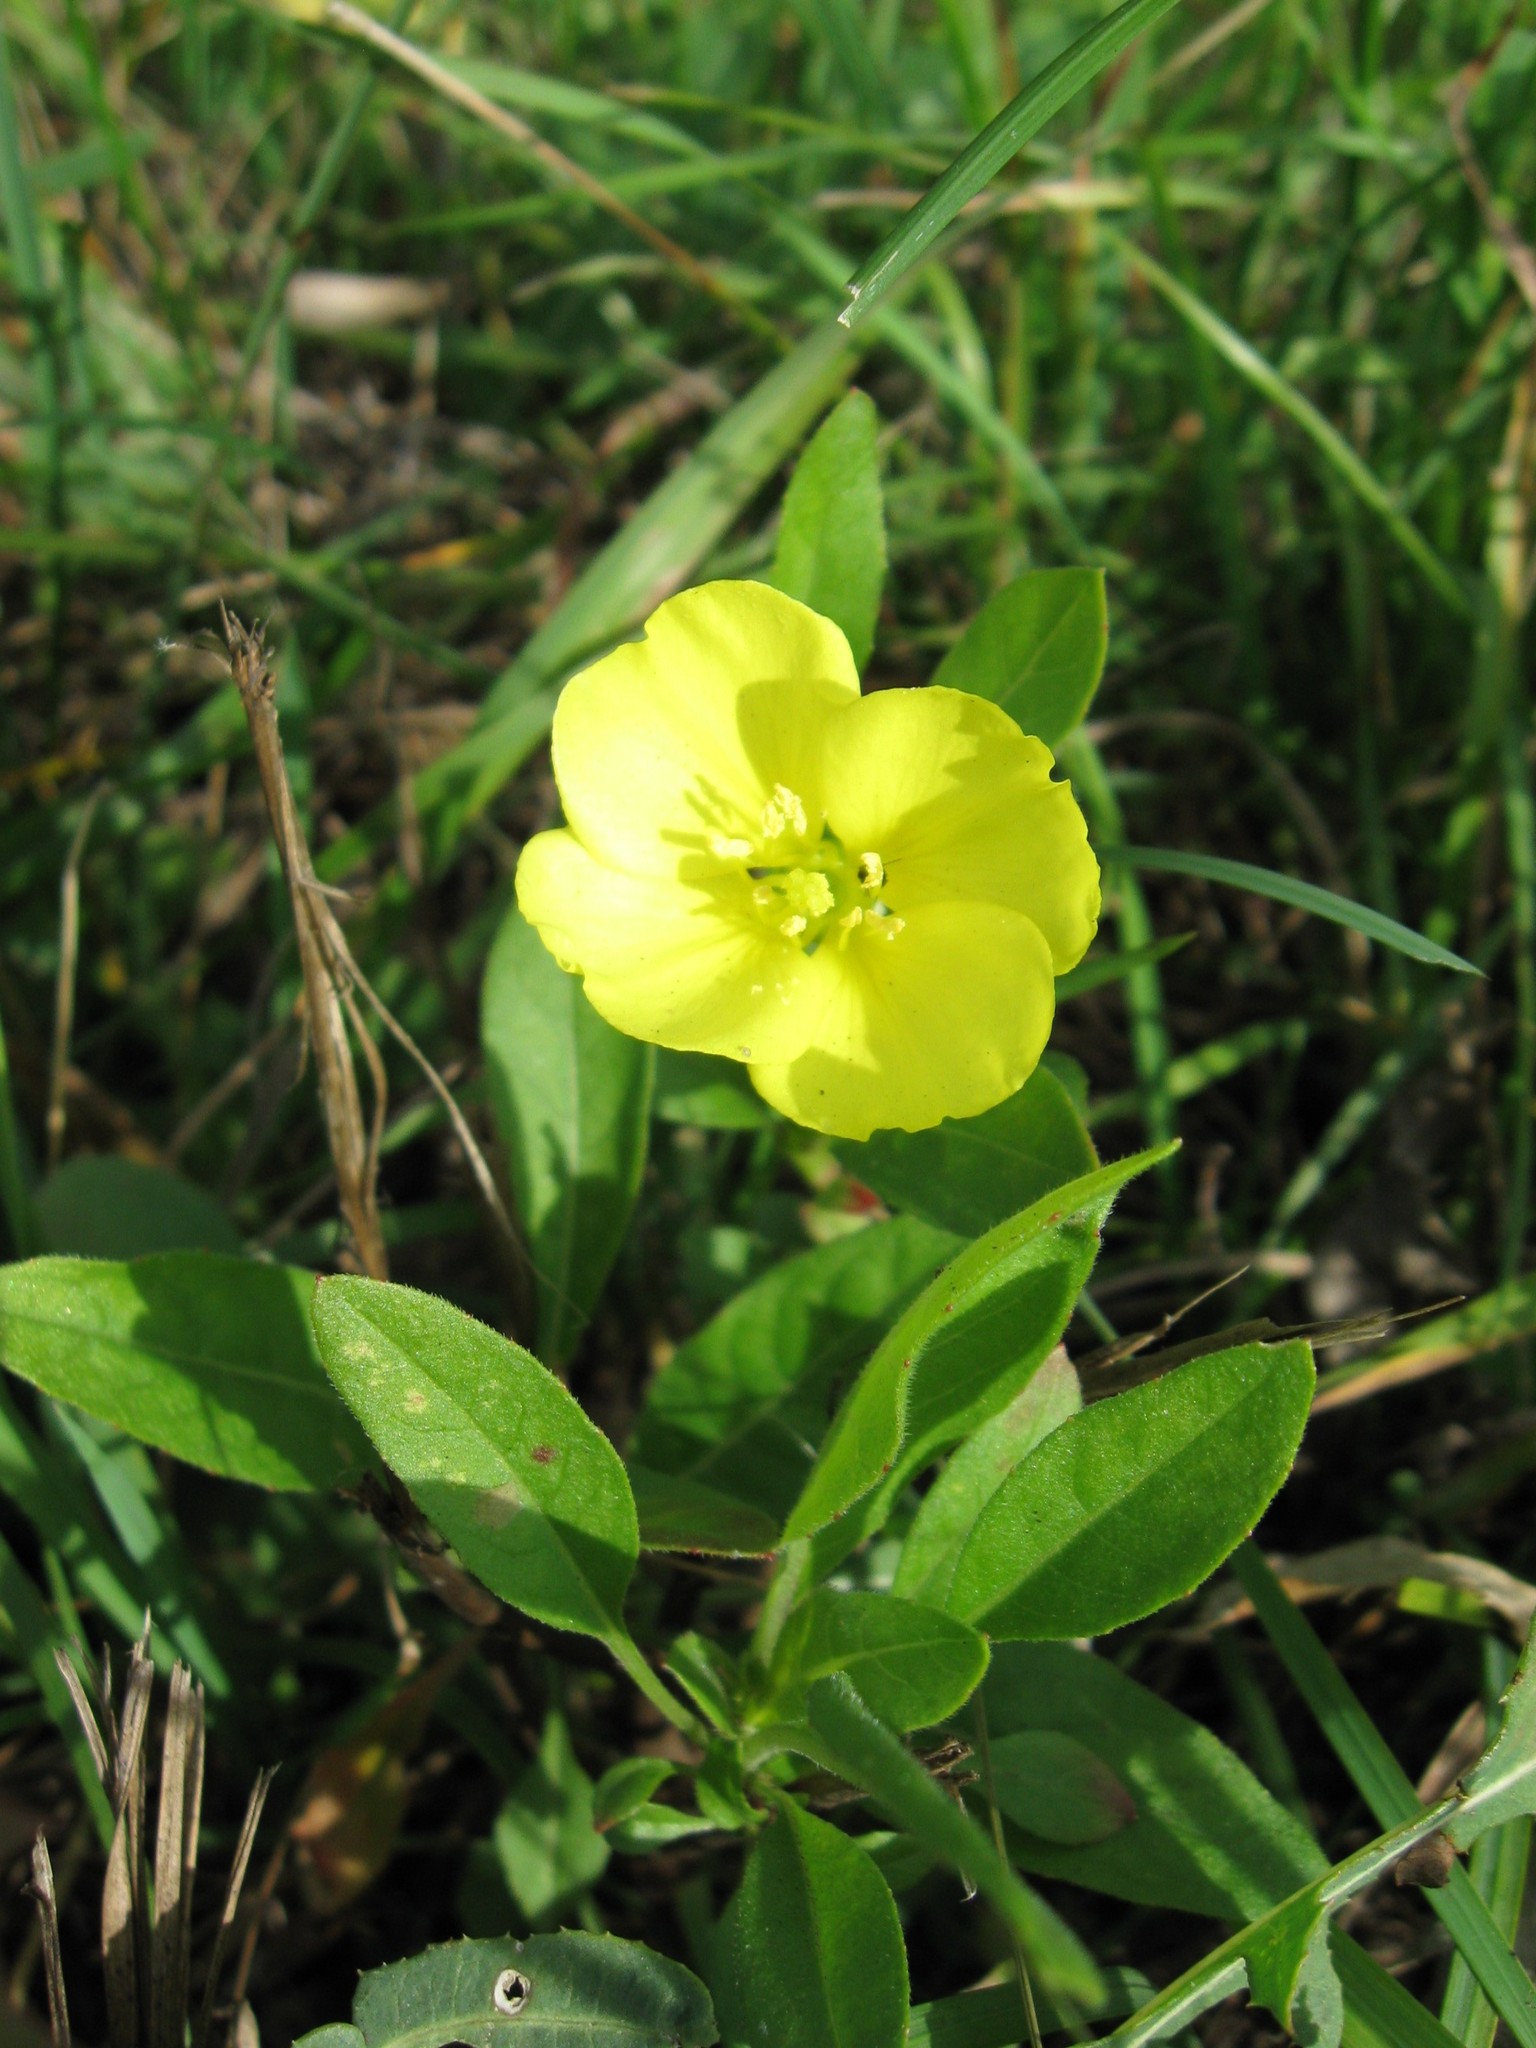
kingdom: Plantae
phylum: Tracheophyta
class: Magnoliopsida
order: Myrtales
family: Onagraceae
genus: Oenothera
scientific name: Oenothera biennis
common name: Common evening-primrose
